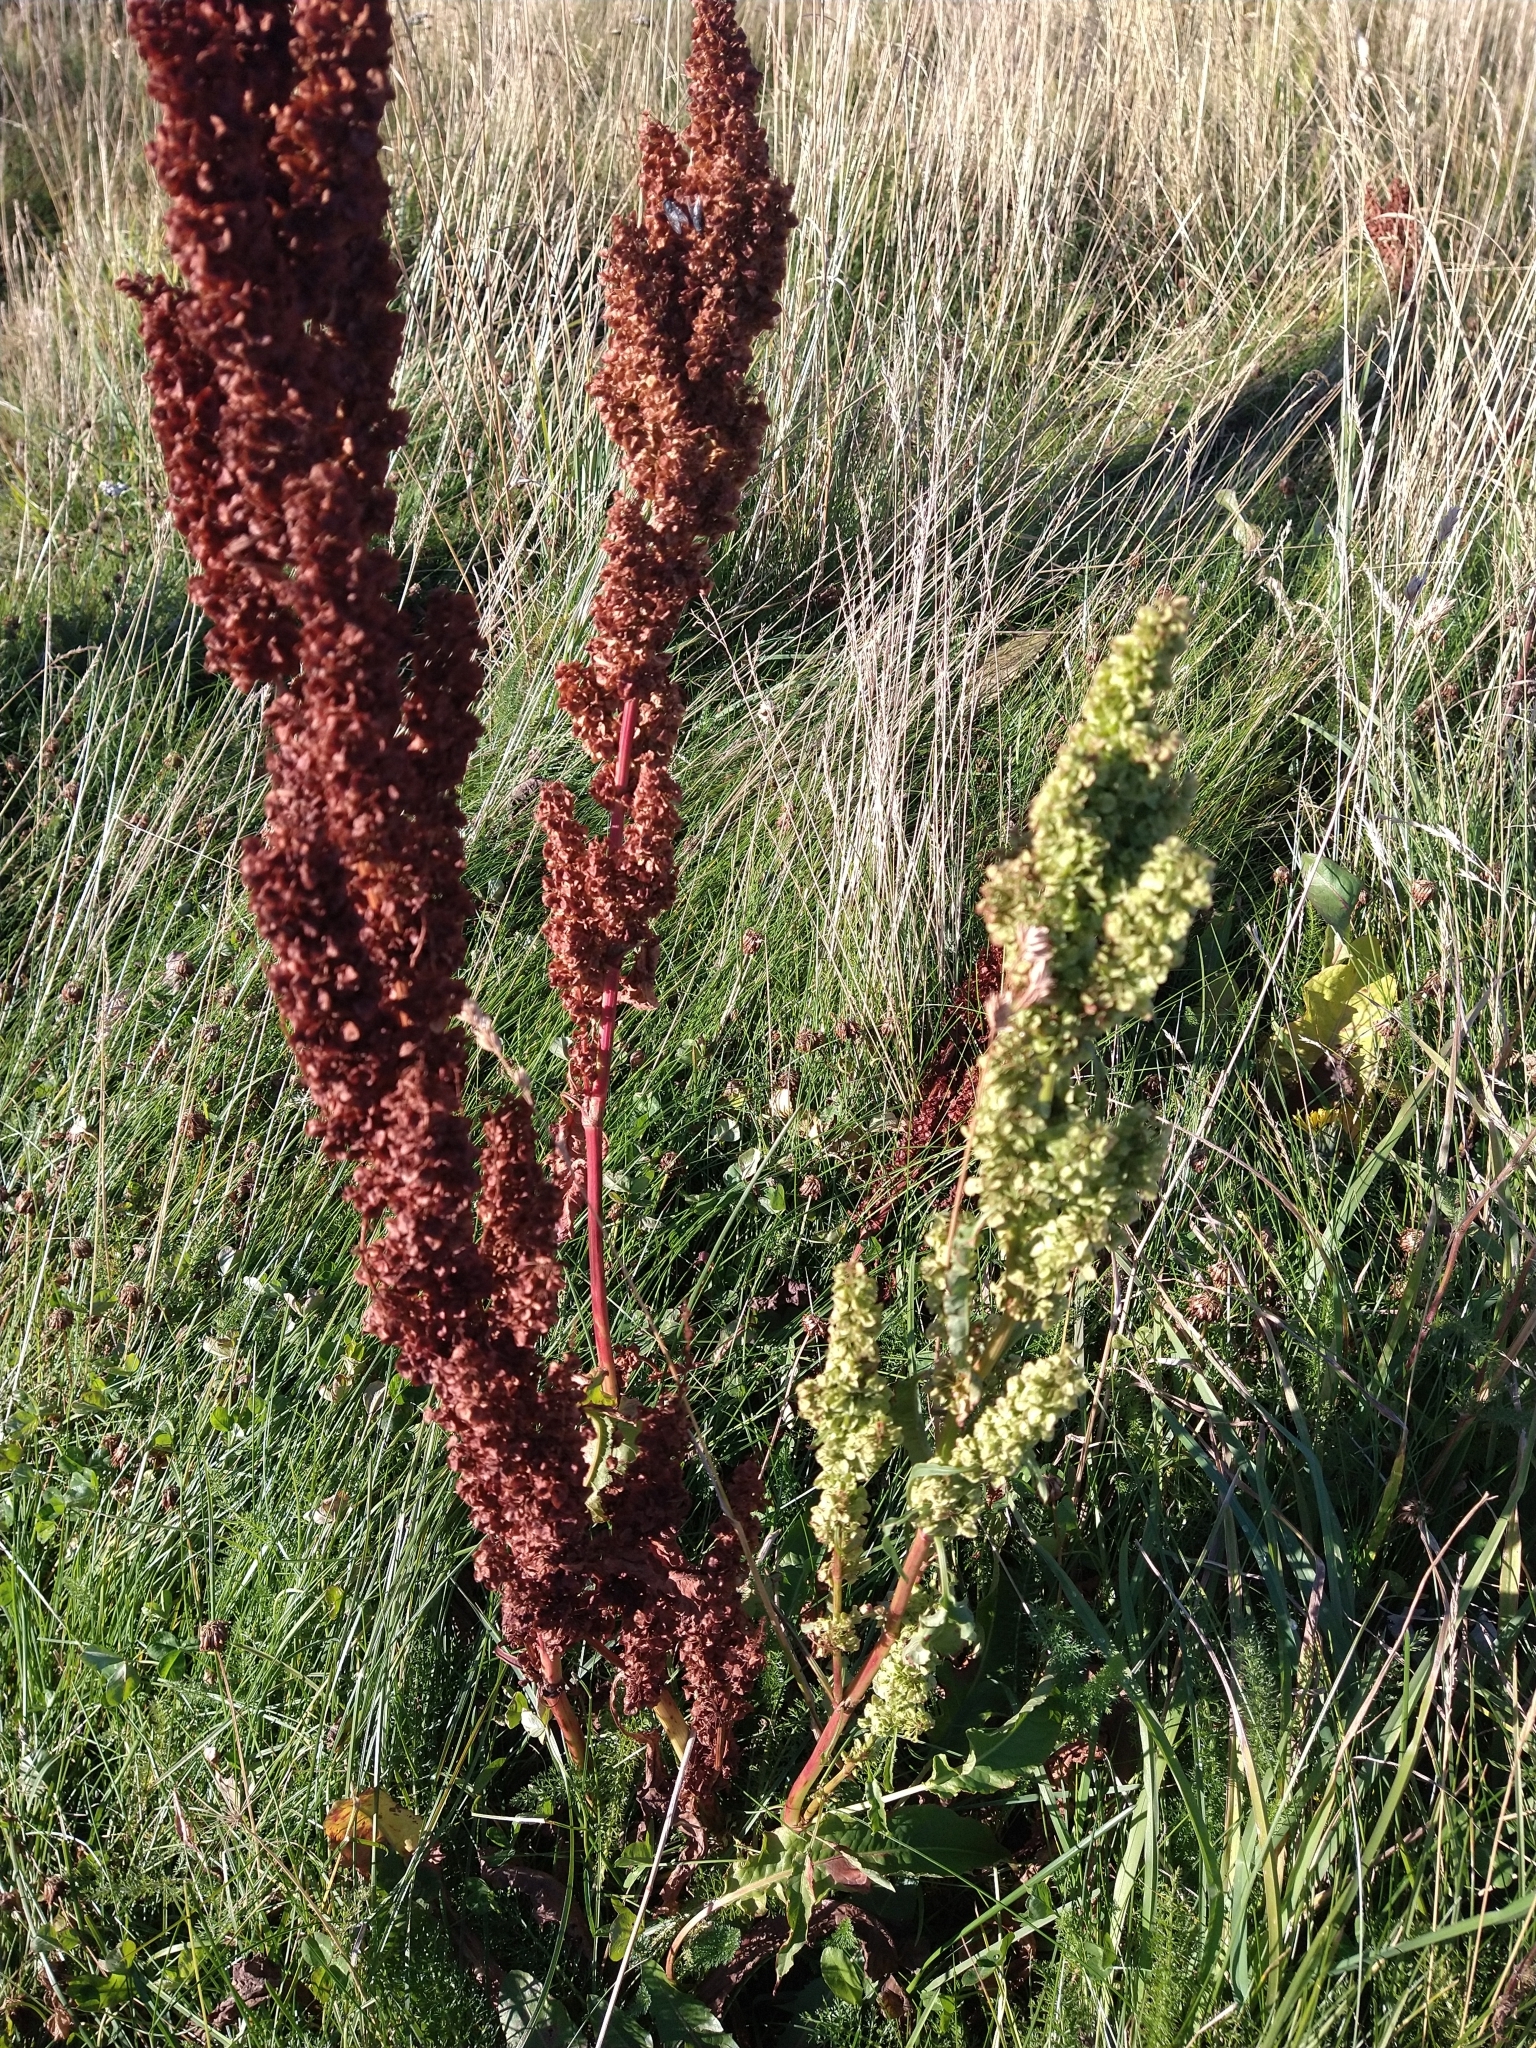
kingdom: Plantae
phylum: Tracheophyta
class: Magnoliopsida
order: Caryophyllales
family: Polygonaceae
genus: Rumex
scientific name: Rumex crispus
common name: Curled dock
